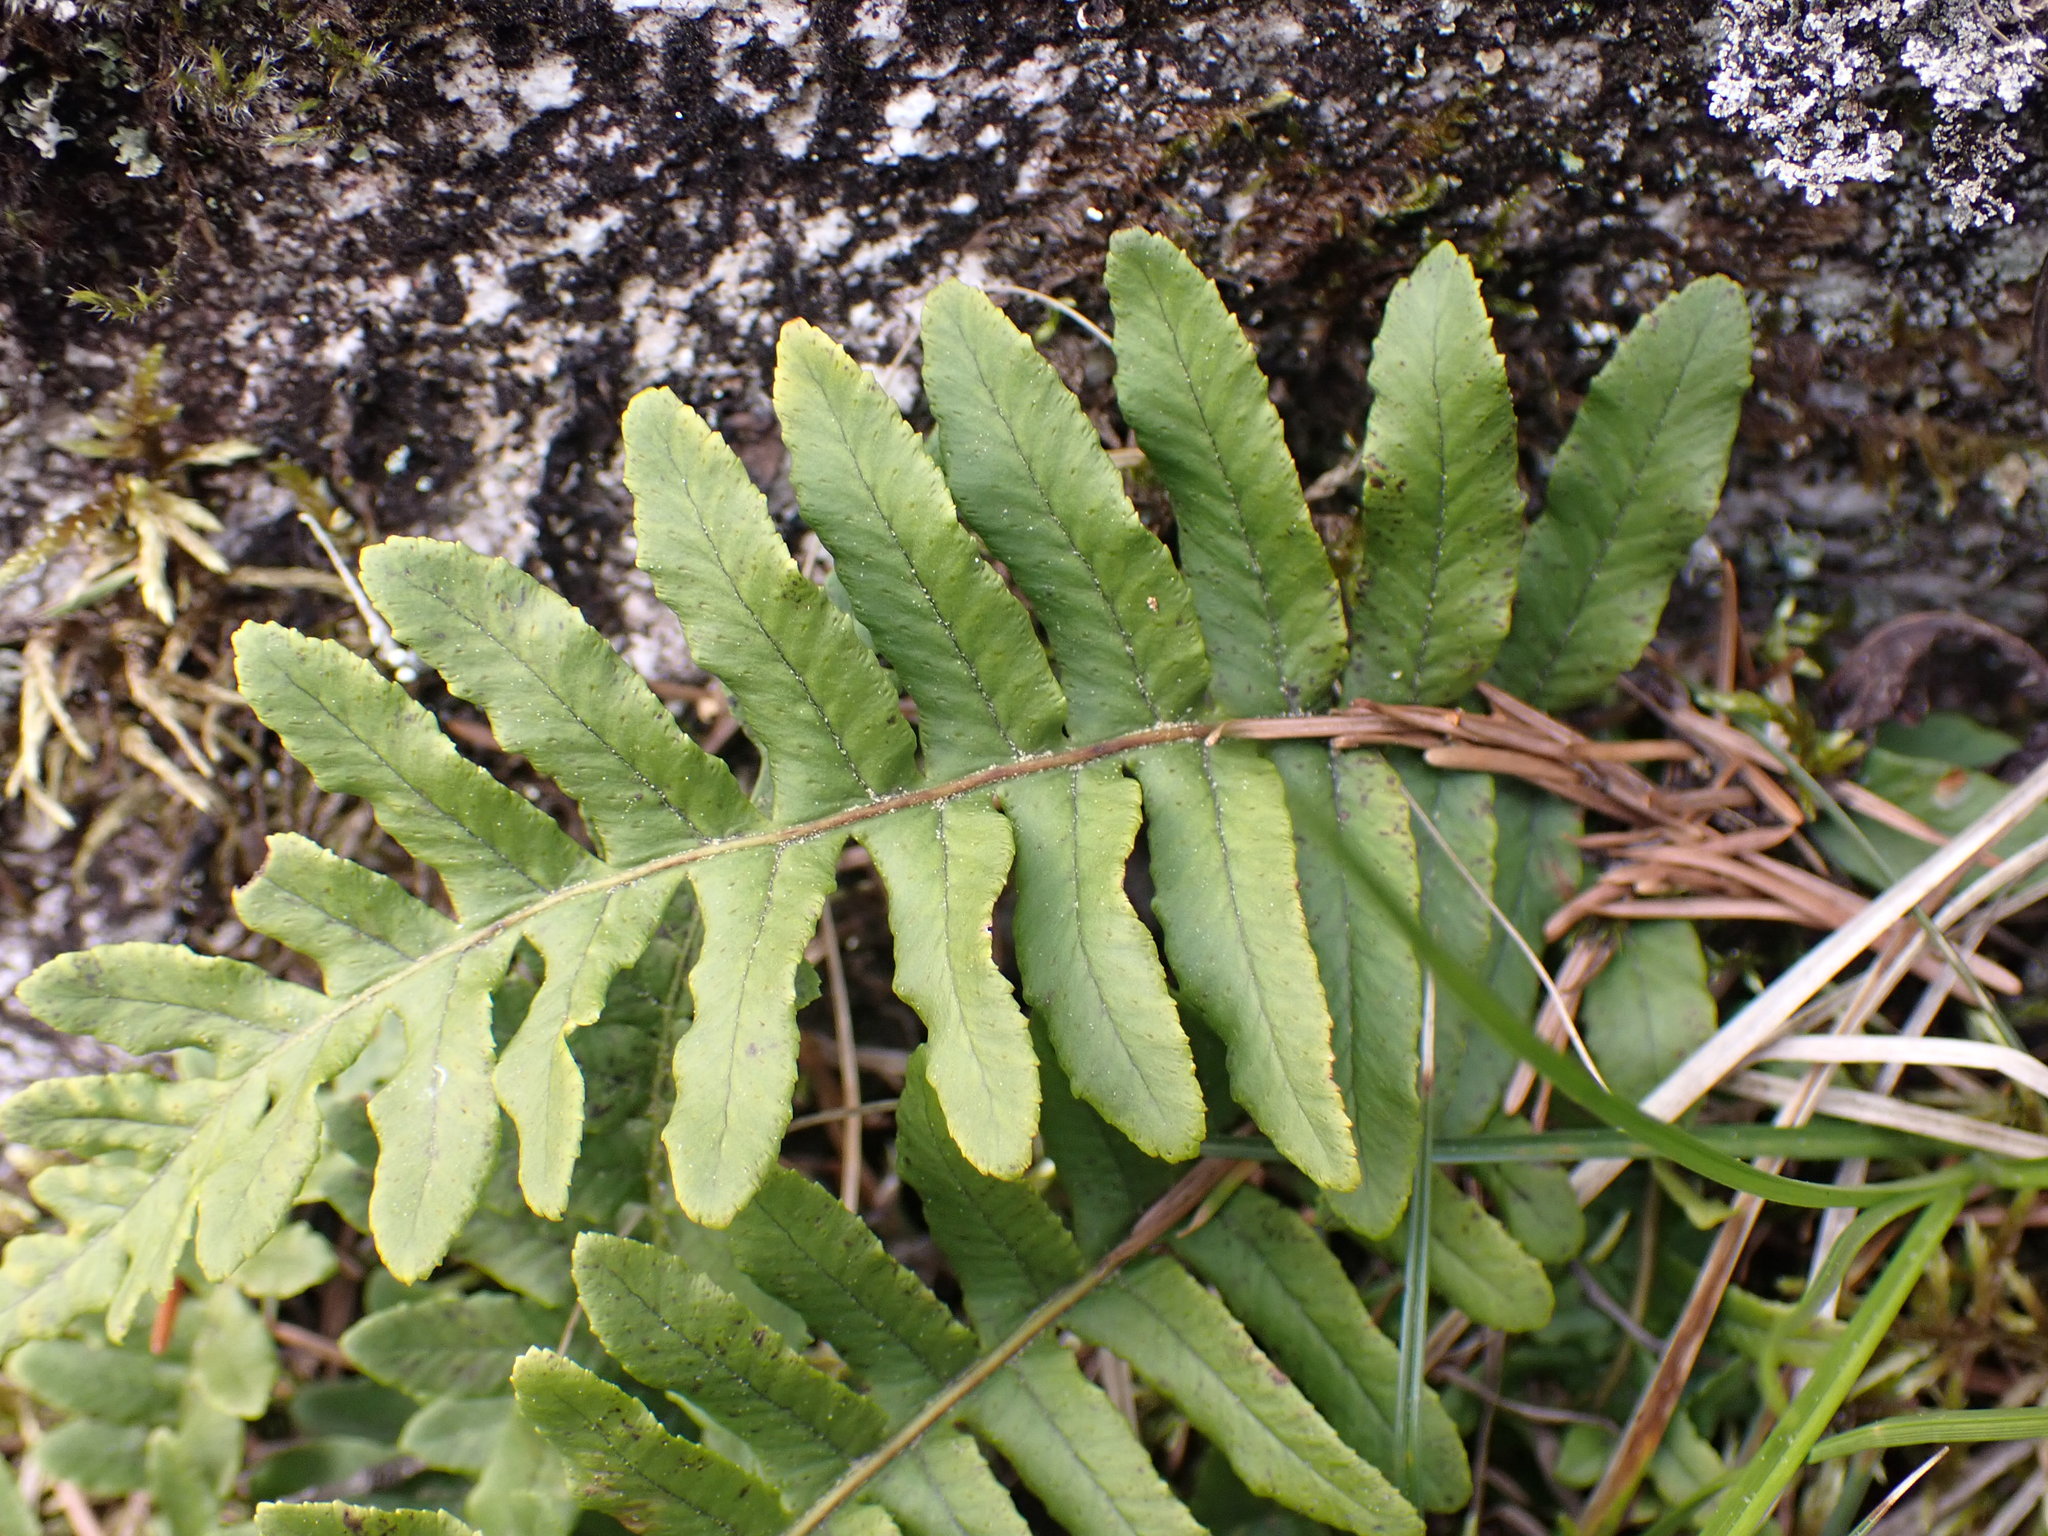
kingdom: Plantae
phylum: Tracheophyta
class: Polypodiopsida
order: Polypodiales
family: Polypodiaceae
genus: Polypodium
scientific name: Polypodium glycyrrhiza
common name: Licorice fern
